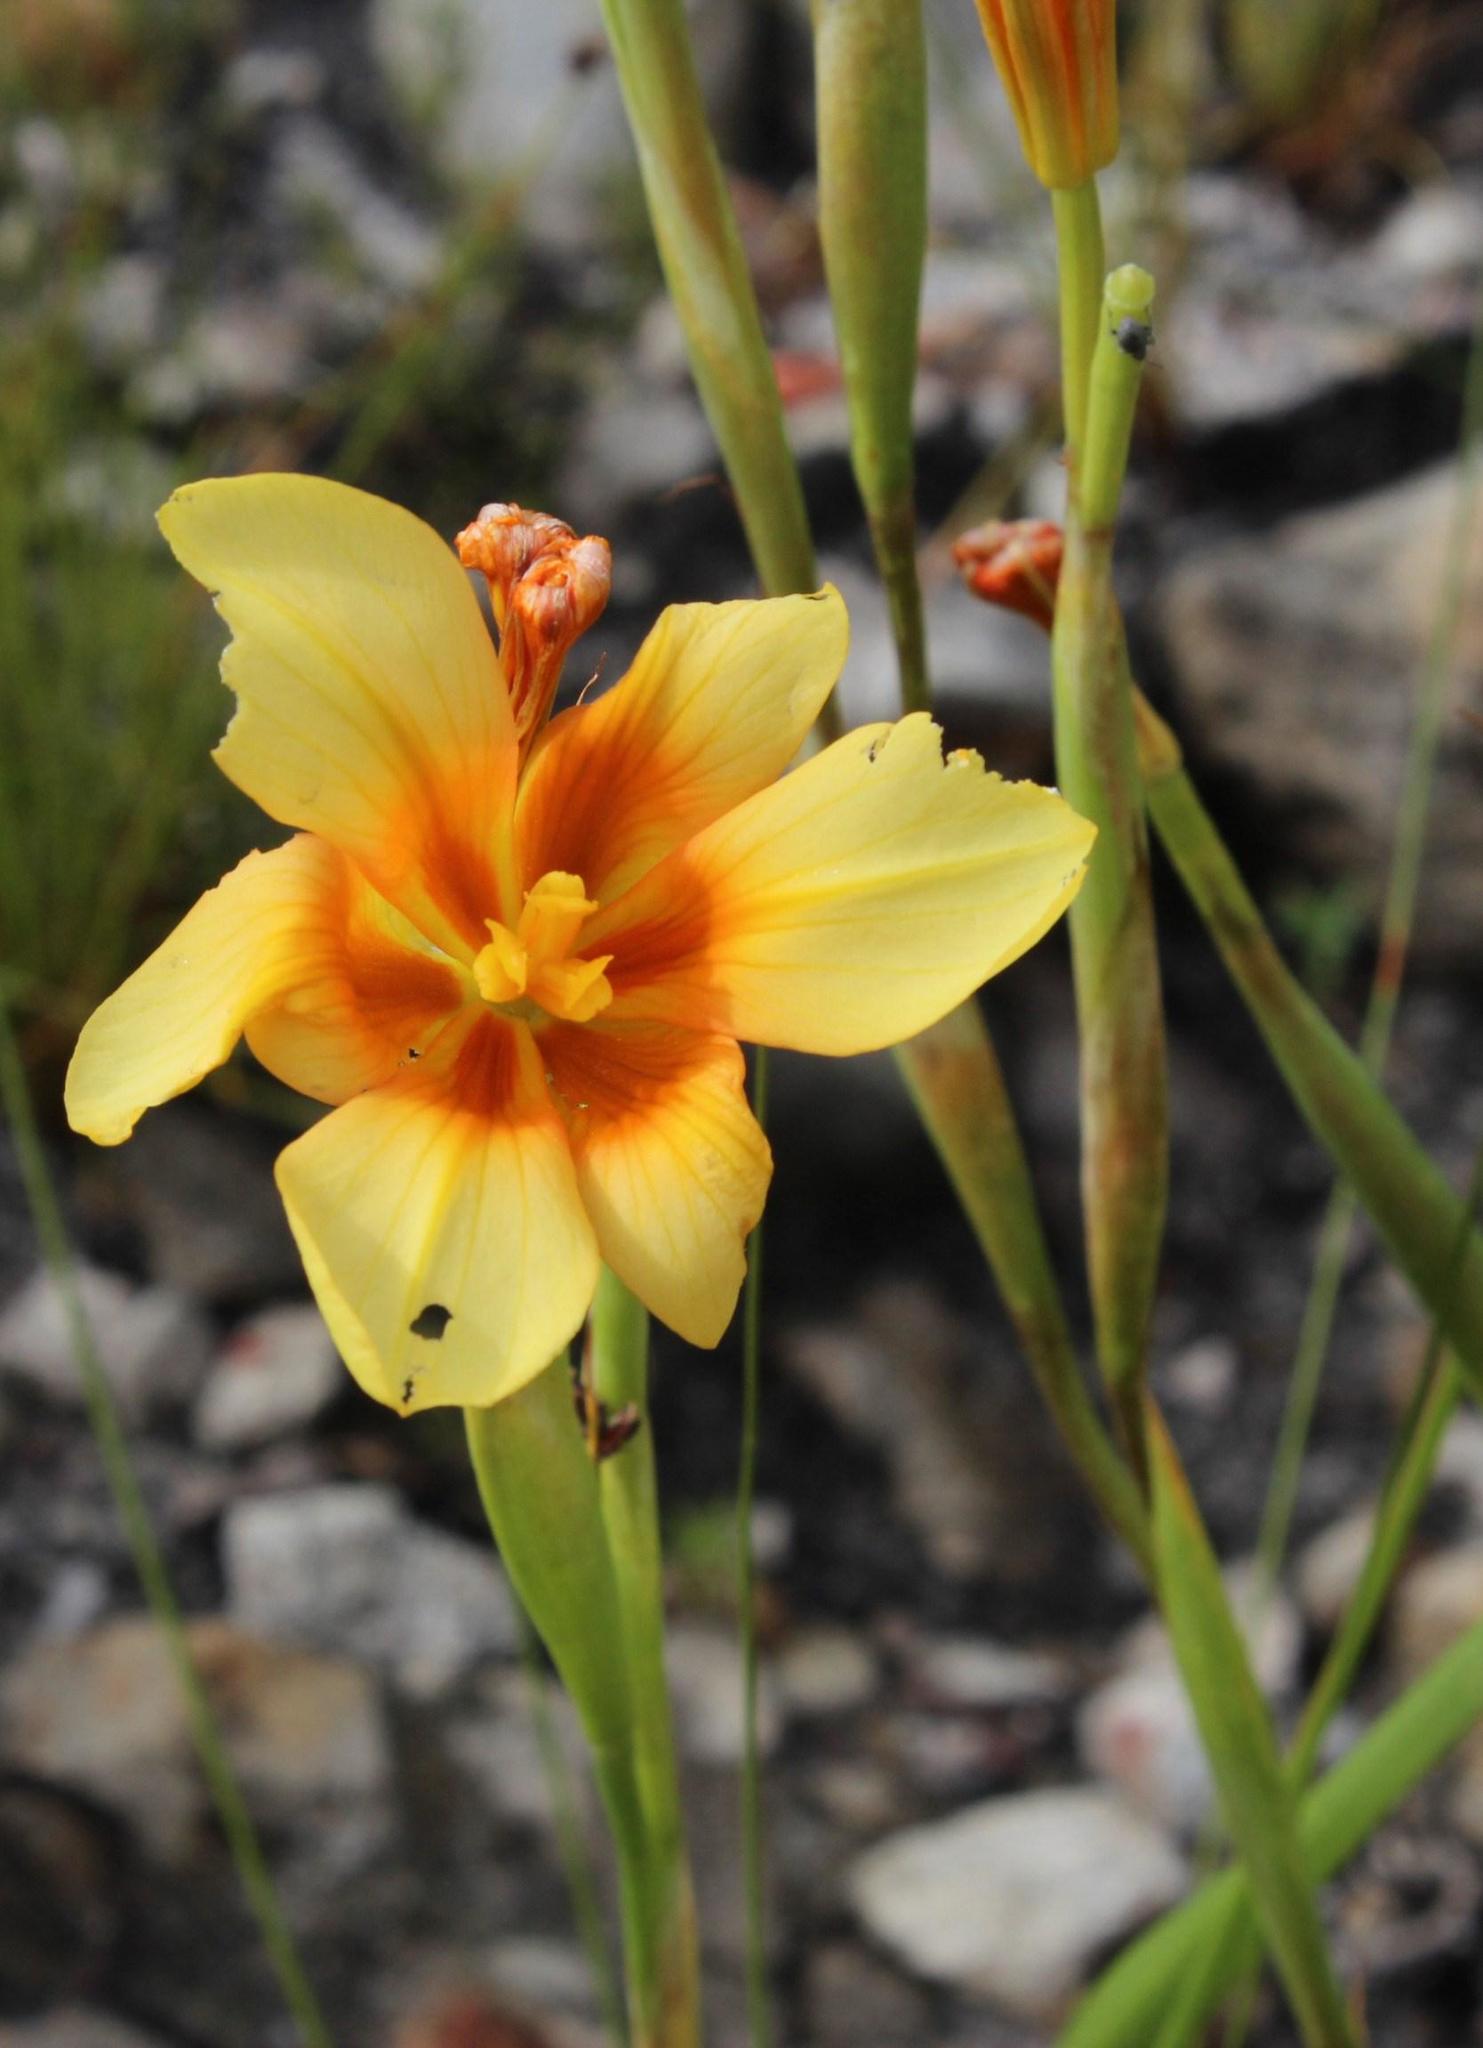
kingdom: Plantae
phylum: Tracheophyta
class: Liliopsida
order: Asparagales
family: Iridaceae
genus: Moraea
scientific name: Moraea ochroleuca
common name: Red tulp
